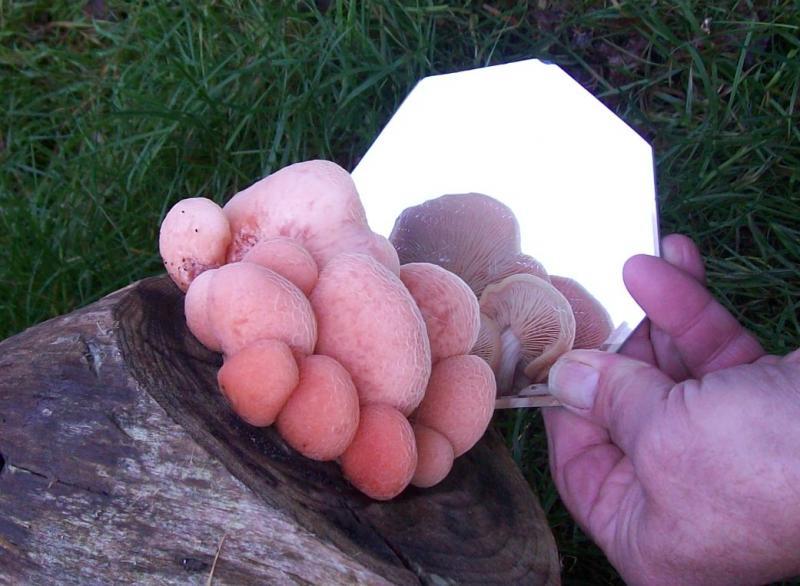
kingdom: Fungi
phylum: Basidiomycota
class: Agaricomycetes
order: Agaricales
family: Physalacriaceae
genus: Rhodotus
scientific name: Rhodotus palmatus
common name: Wrinkled peach
